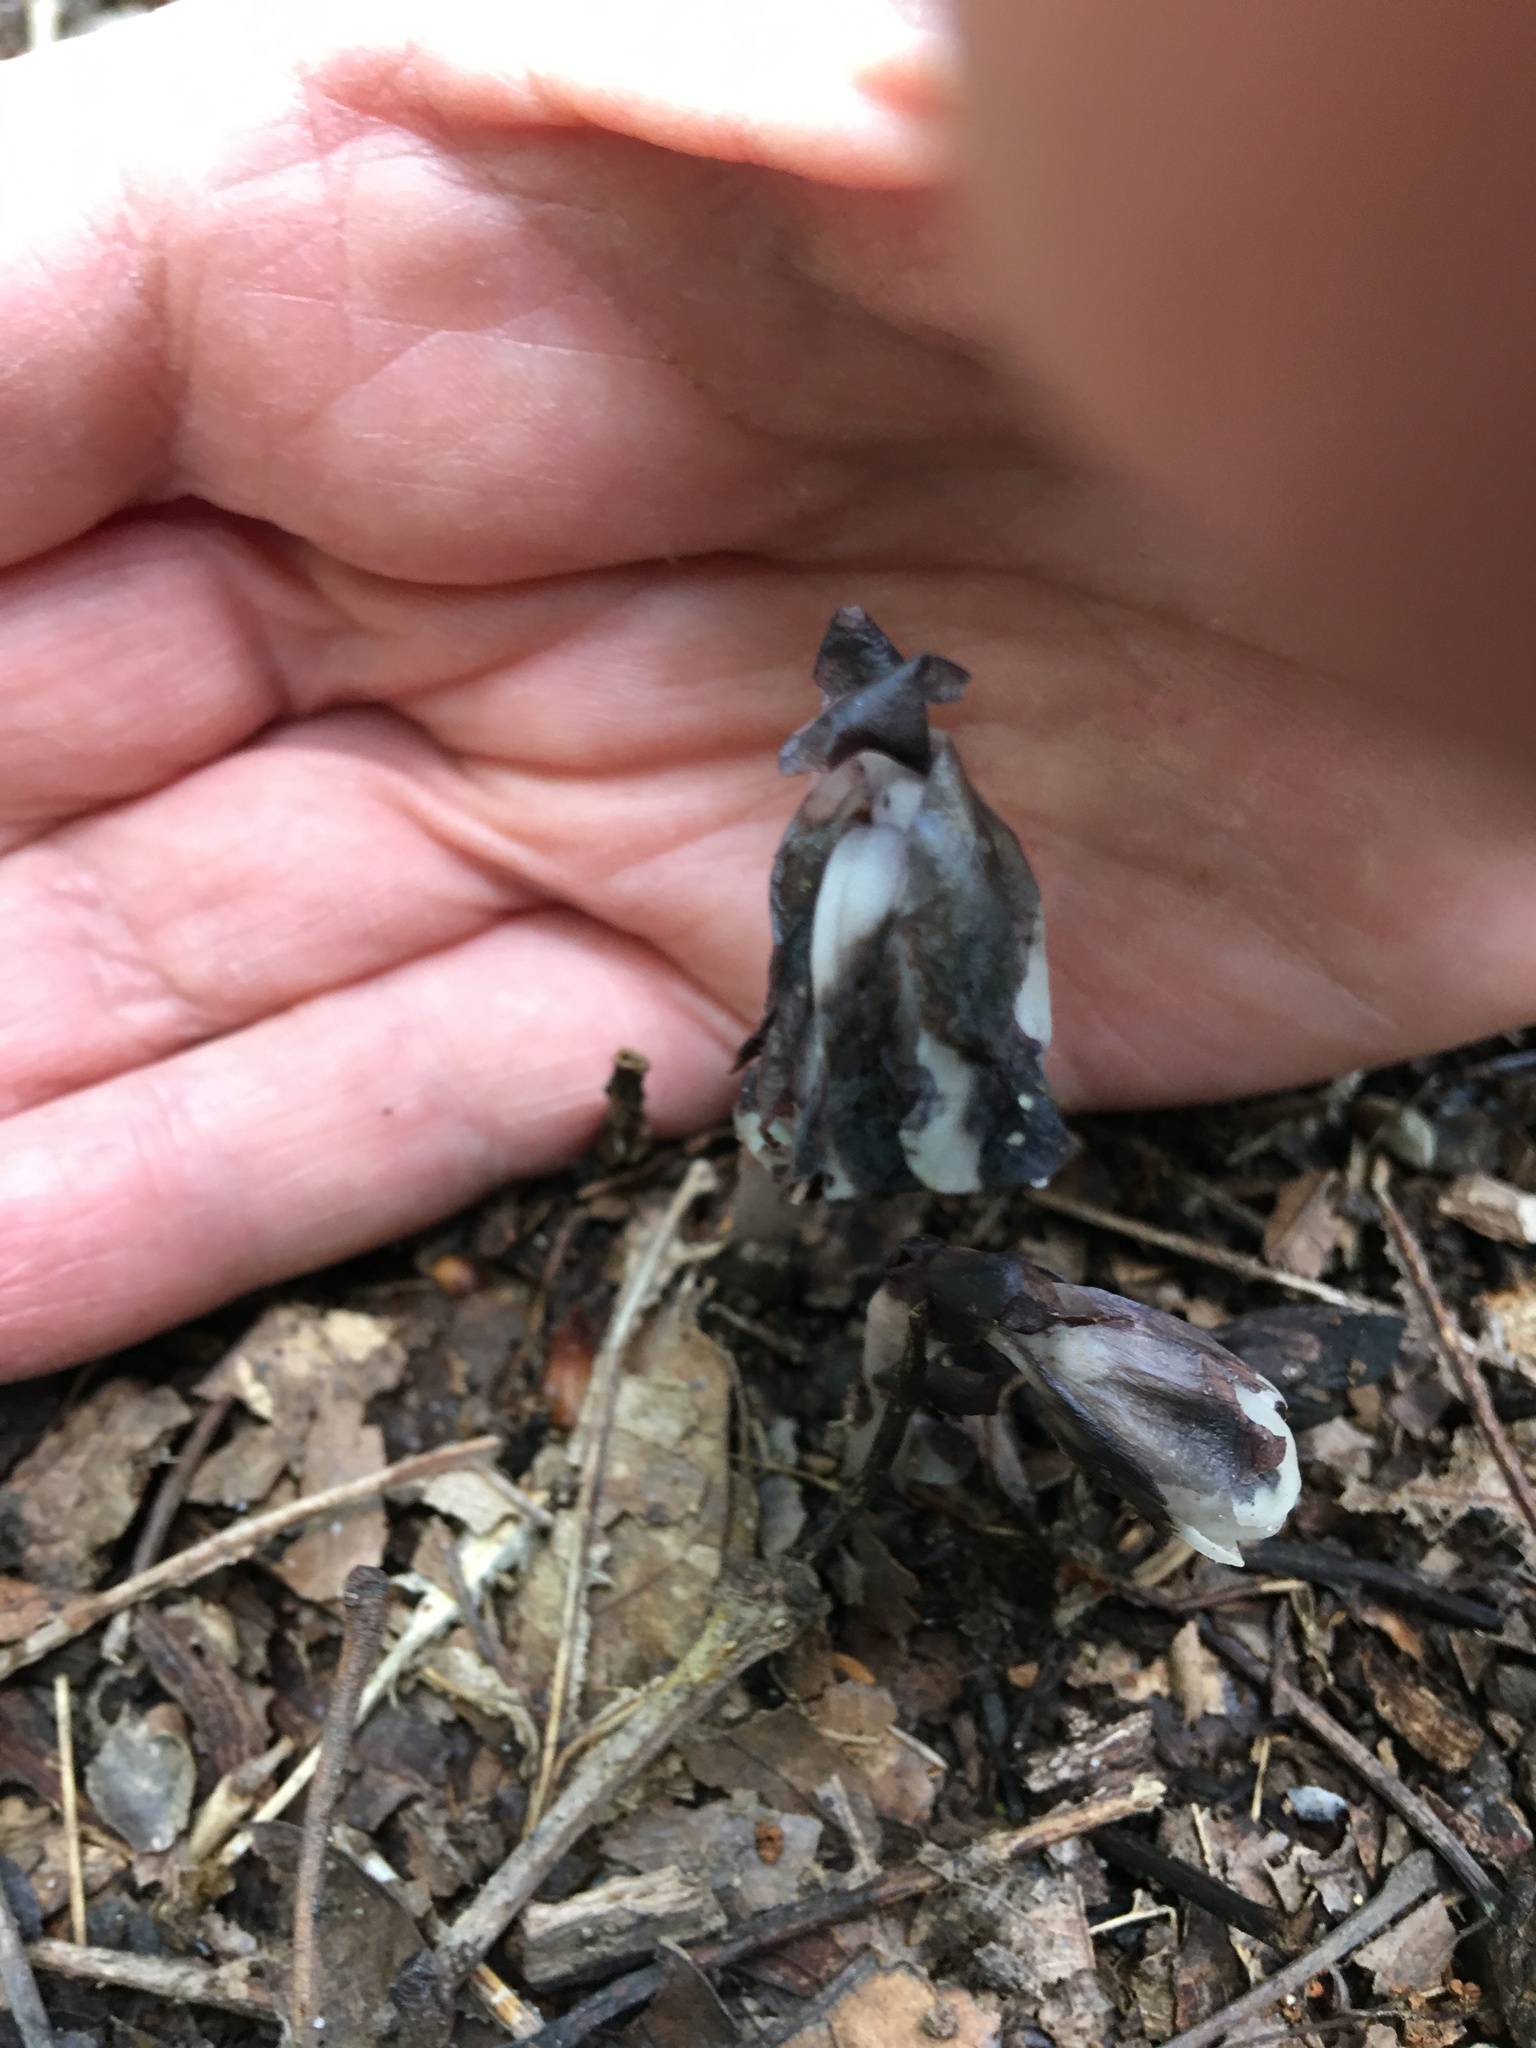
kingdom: Plantae
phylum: Tracheophyta
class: Magnoliopsida
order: Ericales
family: Ericaceae
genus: Monotropa
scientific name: Monotropa uniflora
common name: Convulsion root
